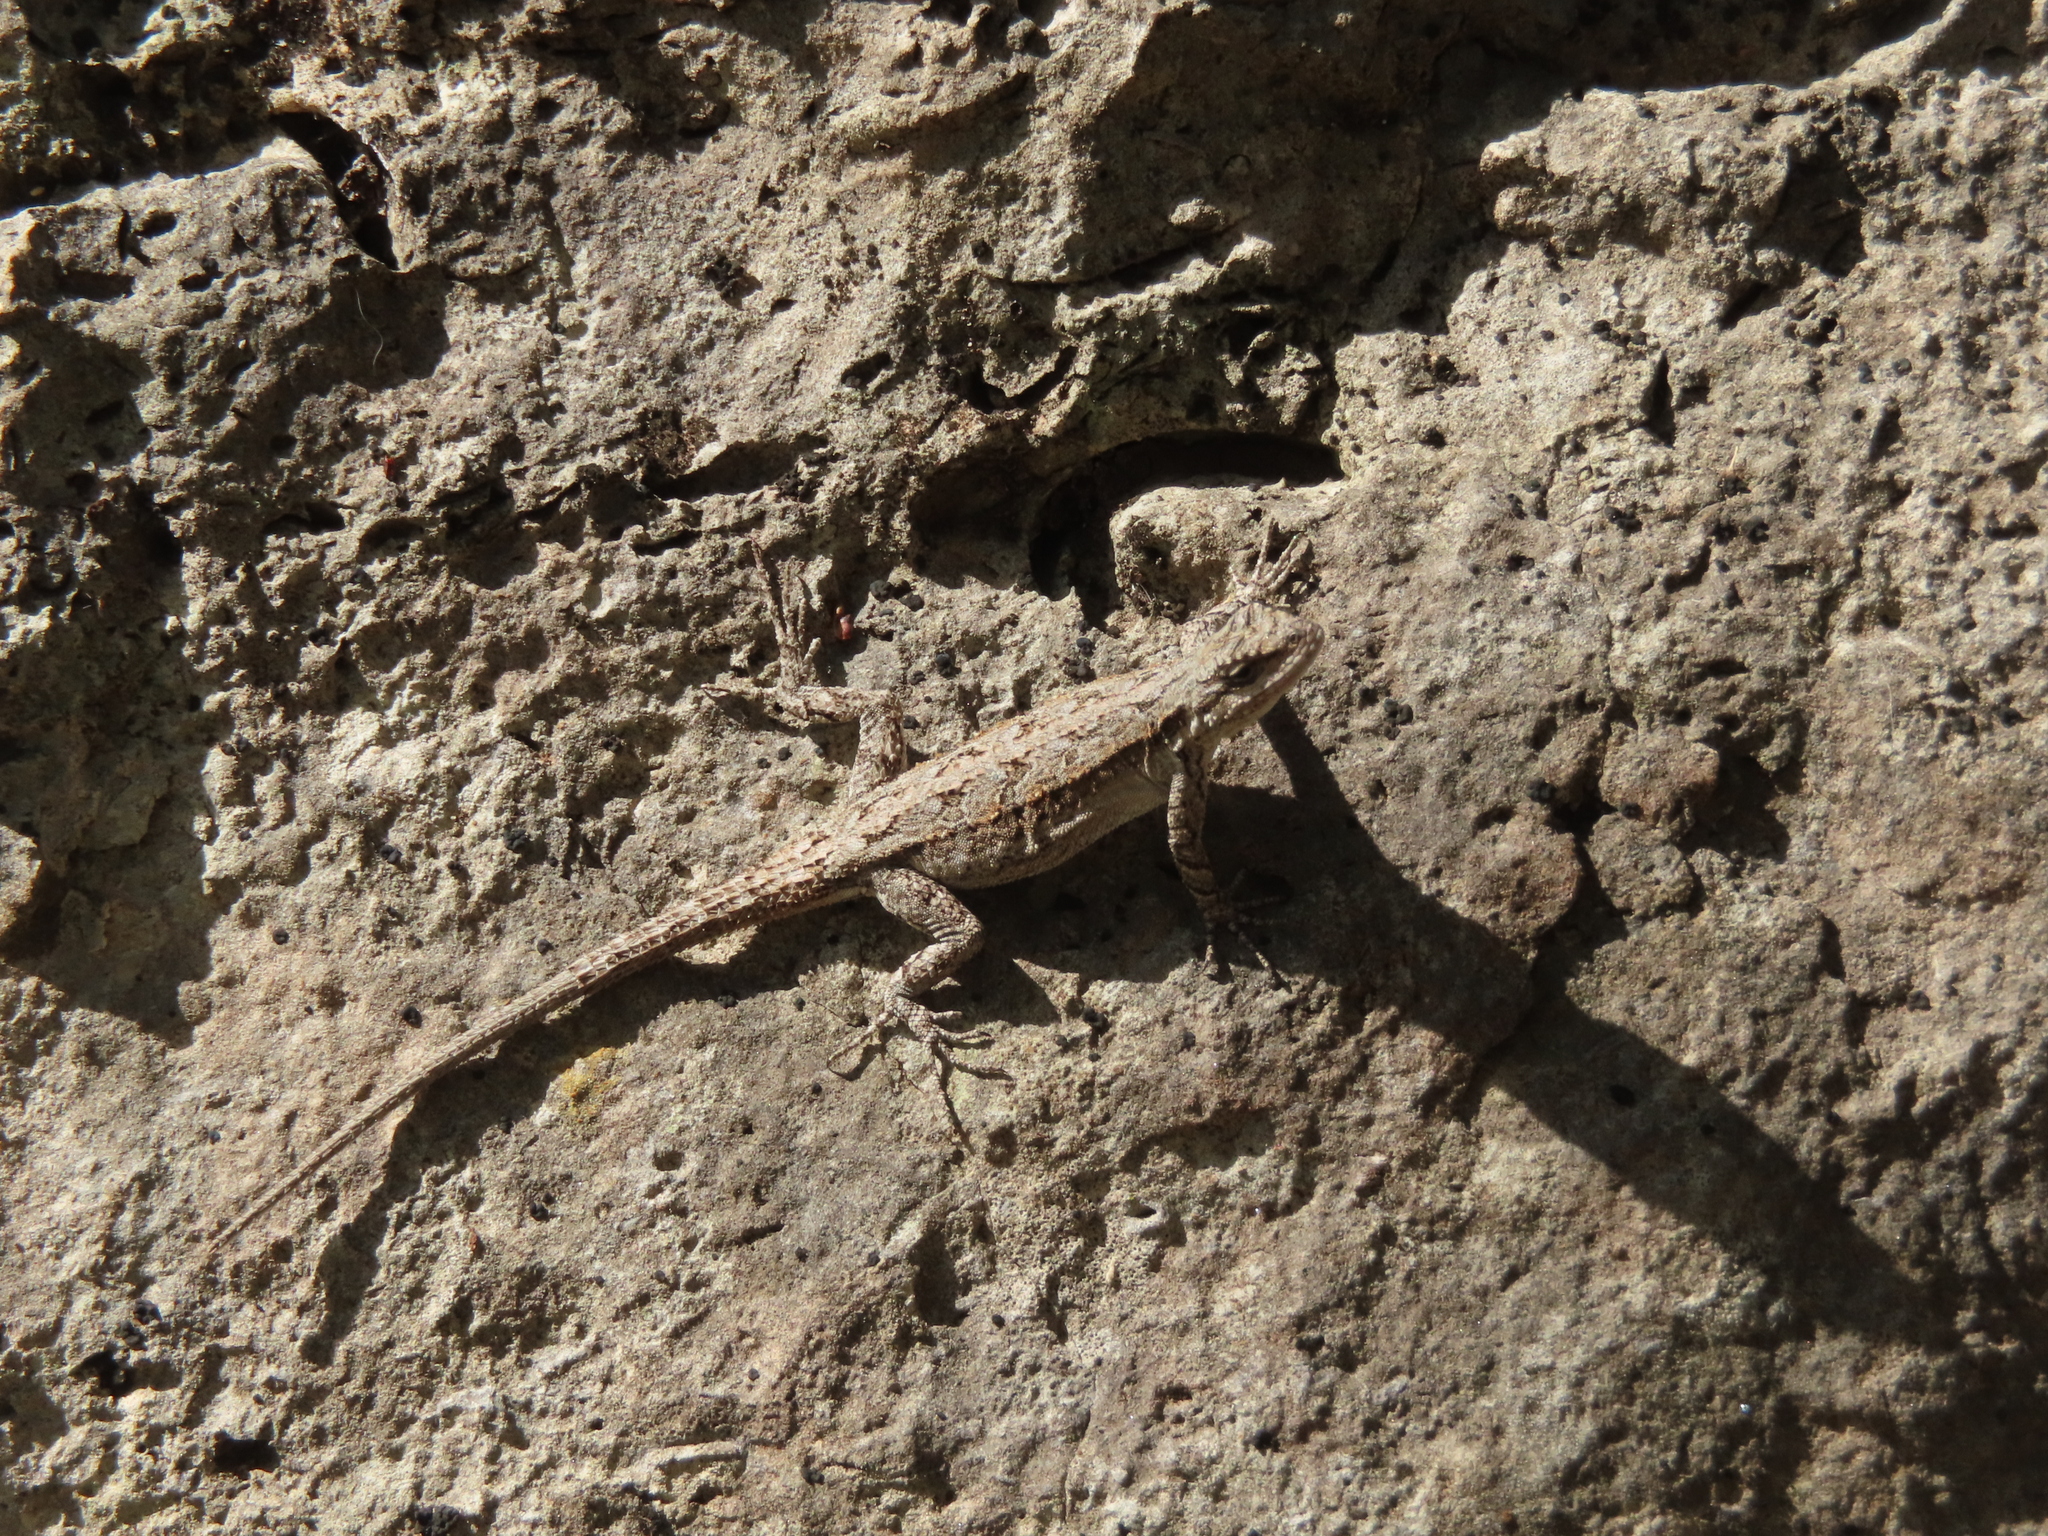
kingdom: Animalia
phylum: Chordata
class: Squamata
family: Phrynosomatidae
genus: Urosaurus
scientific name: Urosaurus ornatus
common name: Ornate tree lizard
